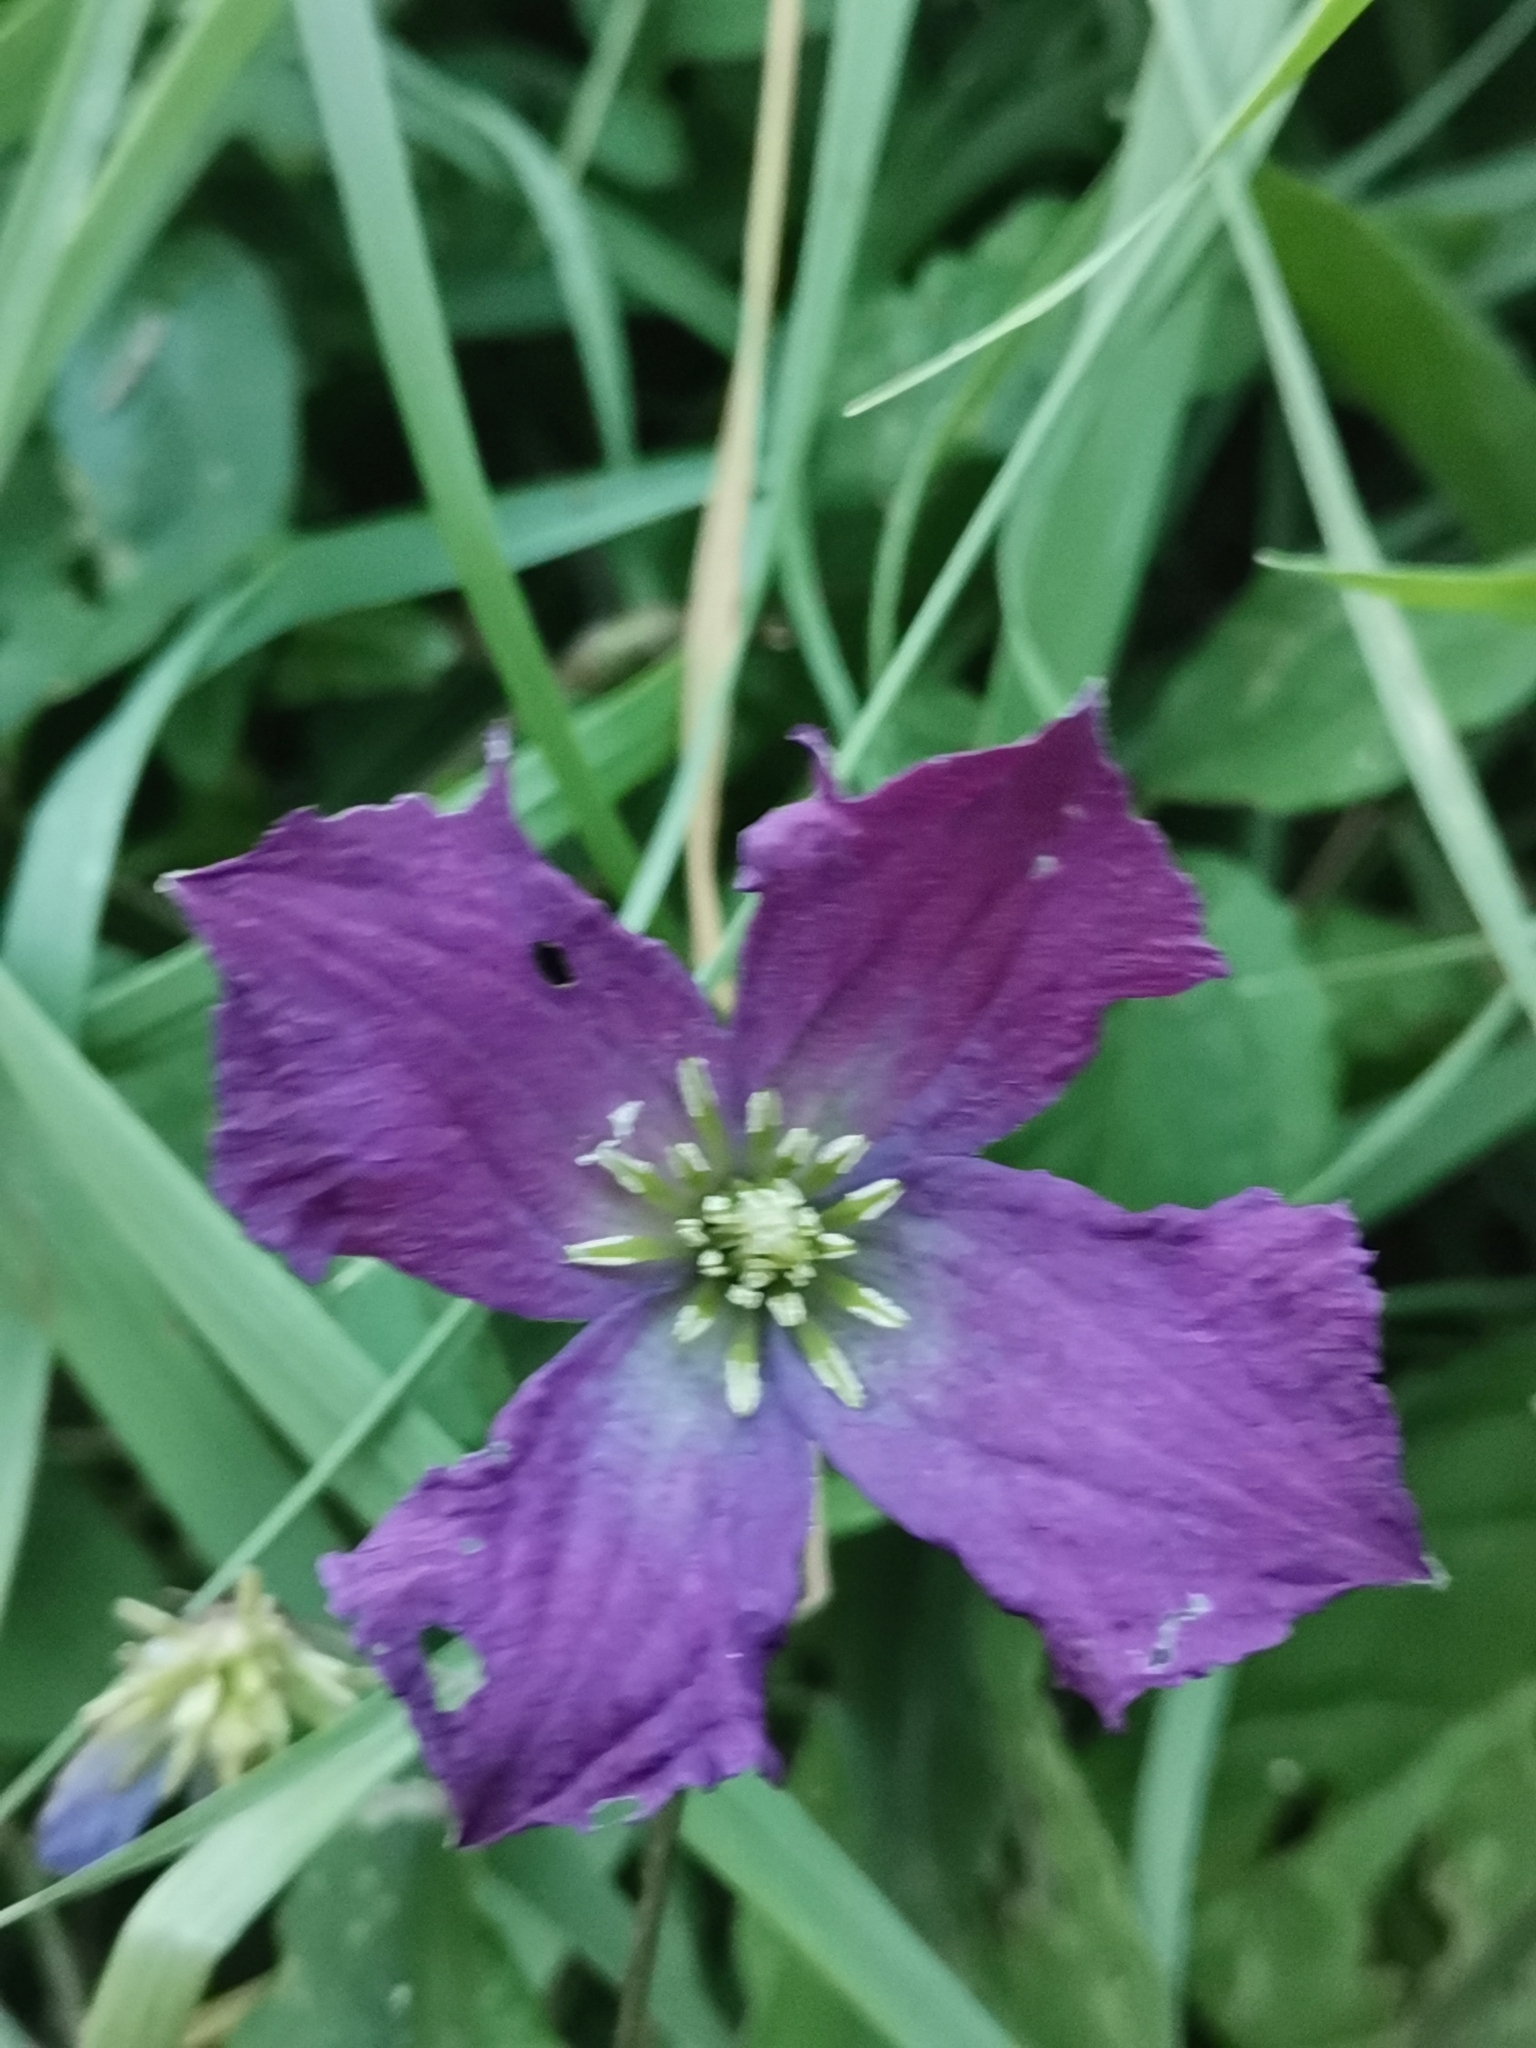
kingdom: Plantae
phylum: Tracheophyta
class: Magnoliopsida
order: Ranunculales
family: Ranunculaceae
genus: Clematis
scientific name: Clematis viticella
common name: Purple clematis
